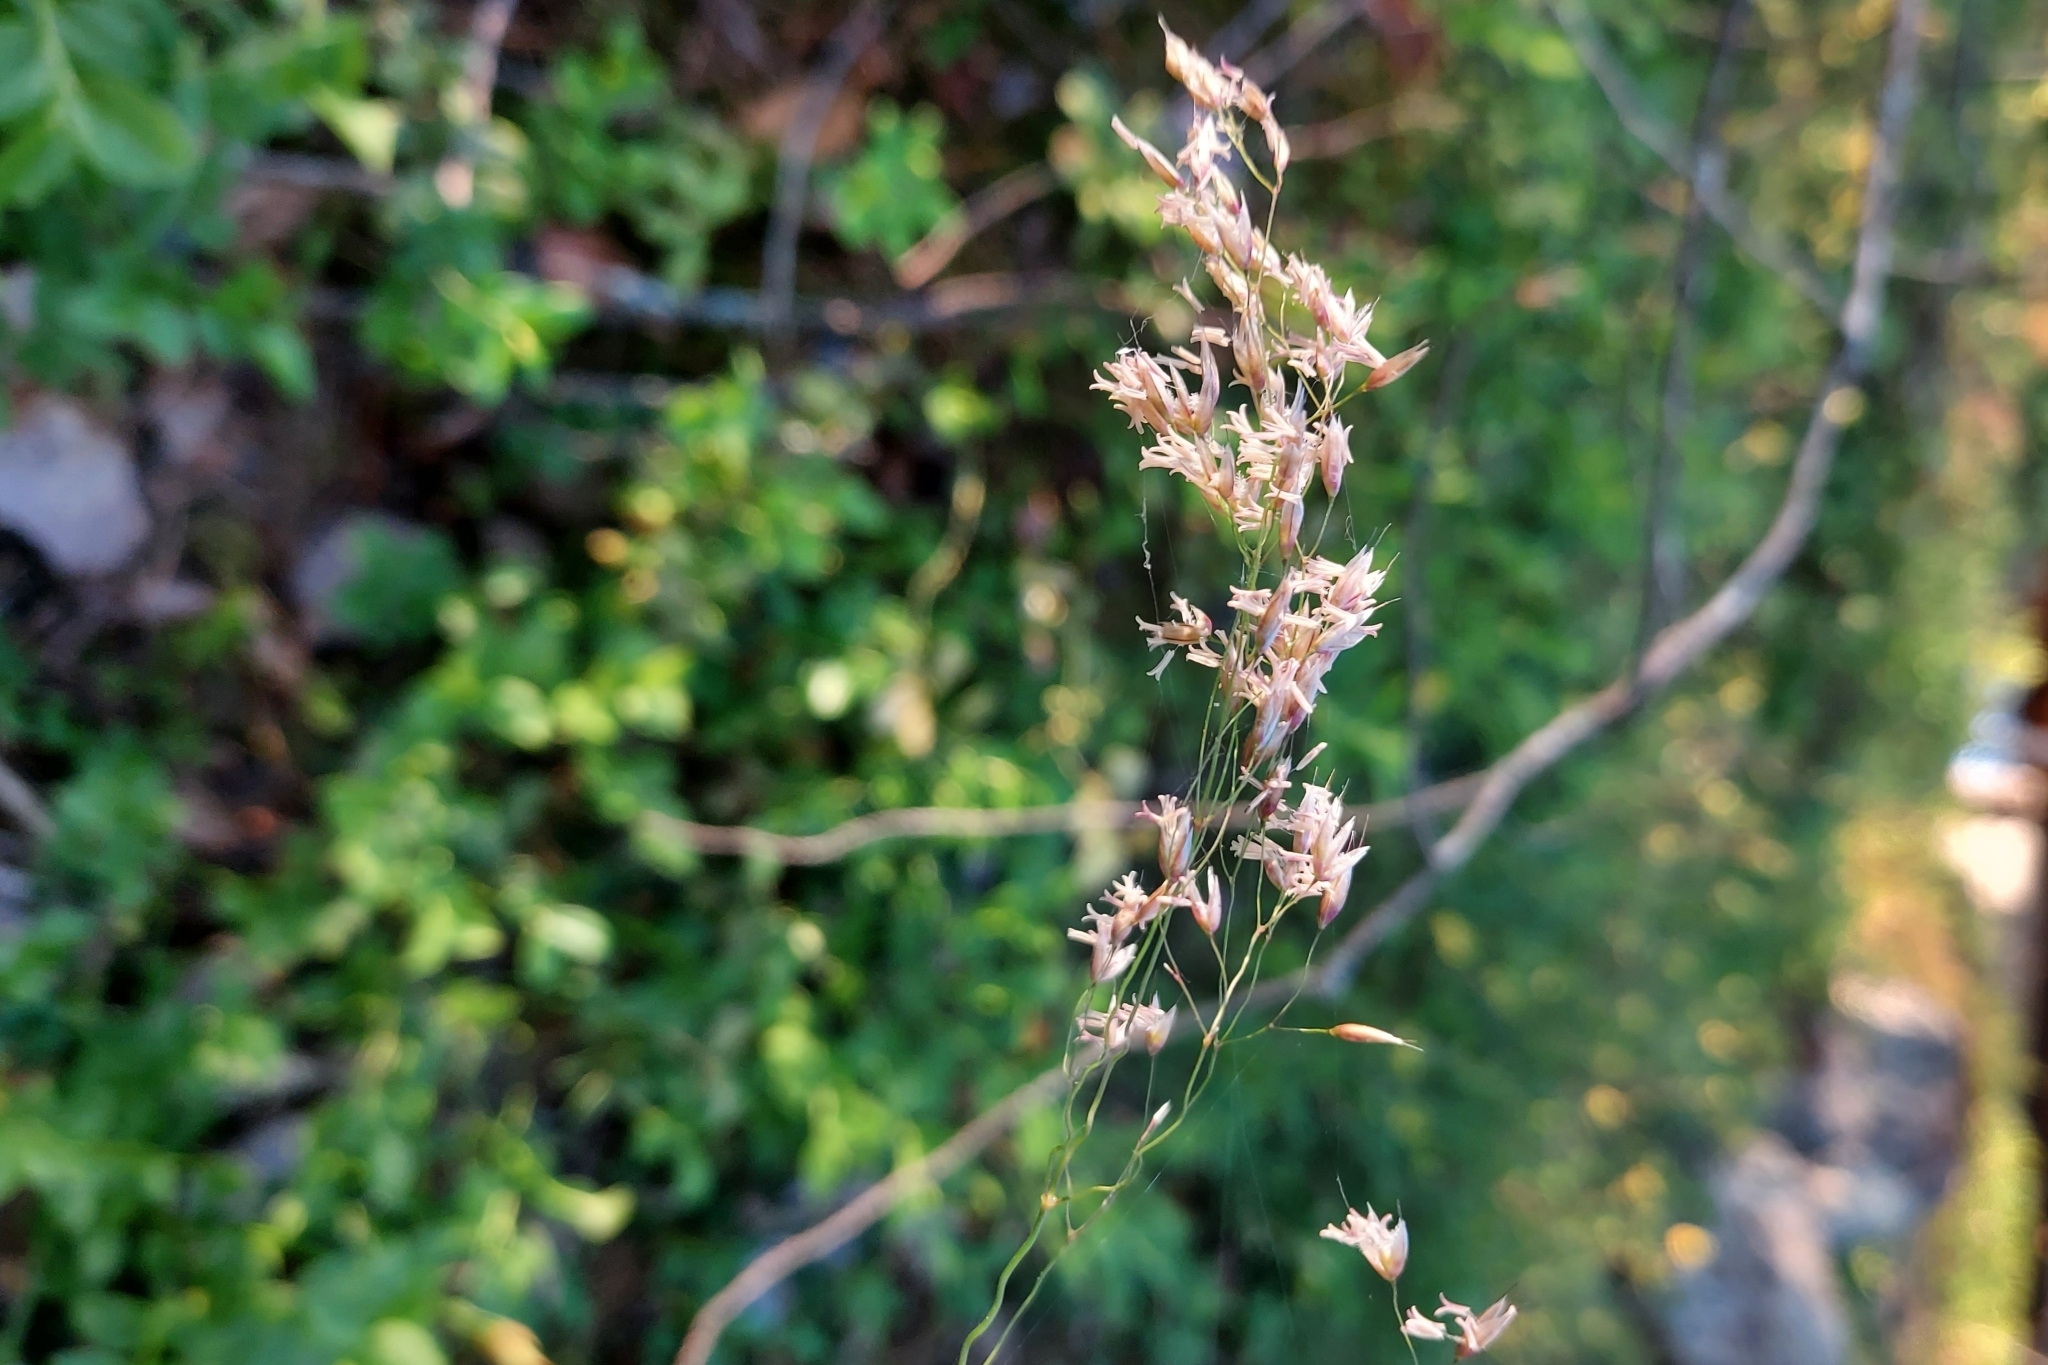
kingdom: Plantae
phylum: Tracheophyta
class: Liliopsida
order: Poales
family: Poaceae
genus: Agrostis
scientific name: Agrostis canina
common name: Velvet bent
